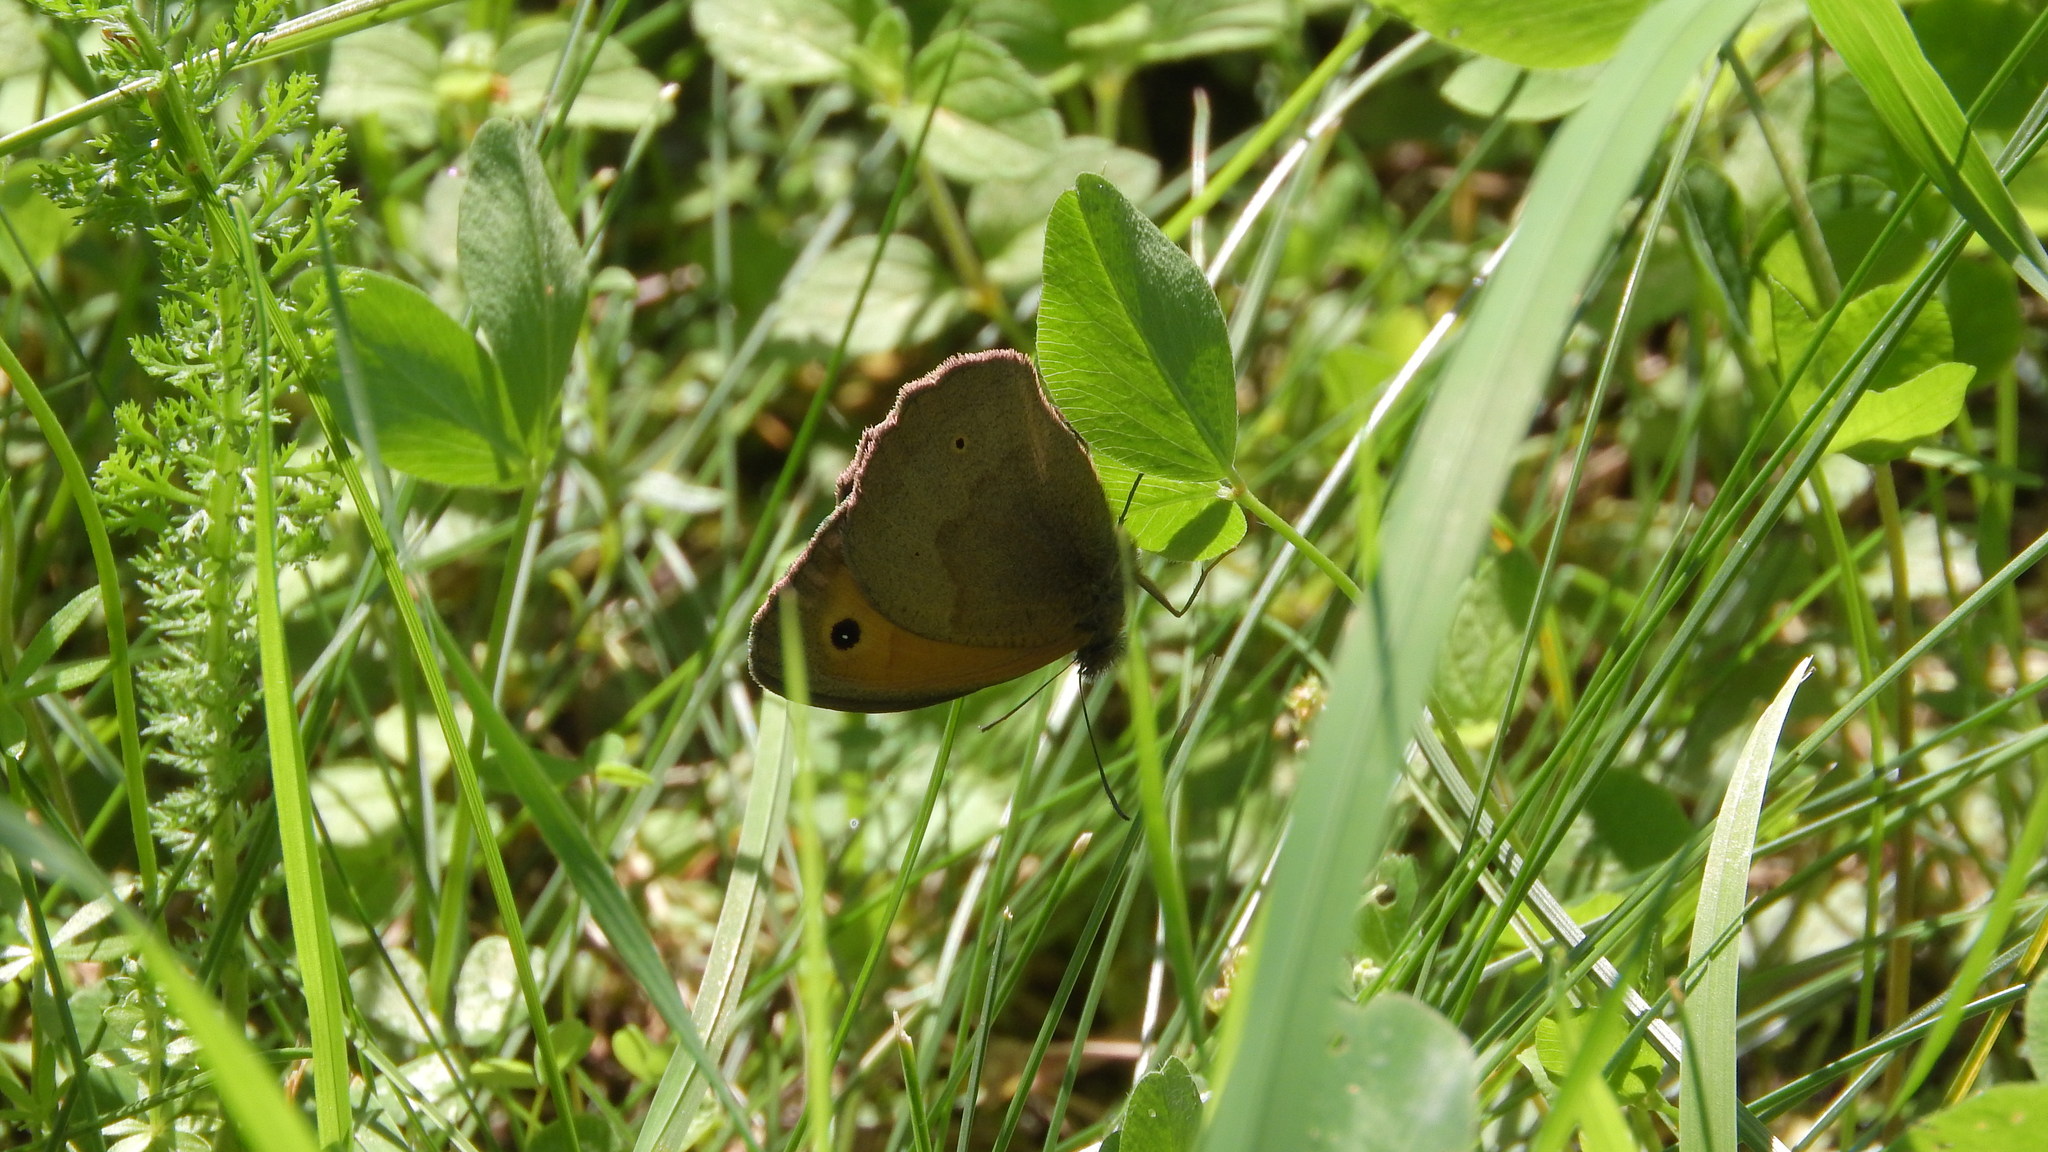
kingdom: Animalia
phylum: Arthropoda
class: Insecta
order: Lepidoptera
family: Nymphalidae
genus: Maniola
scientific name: Maniola jurtina
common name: Meadow brown
